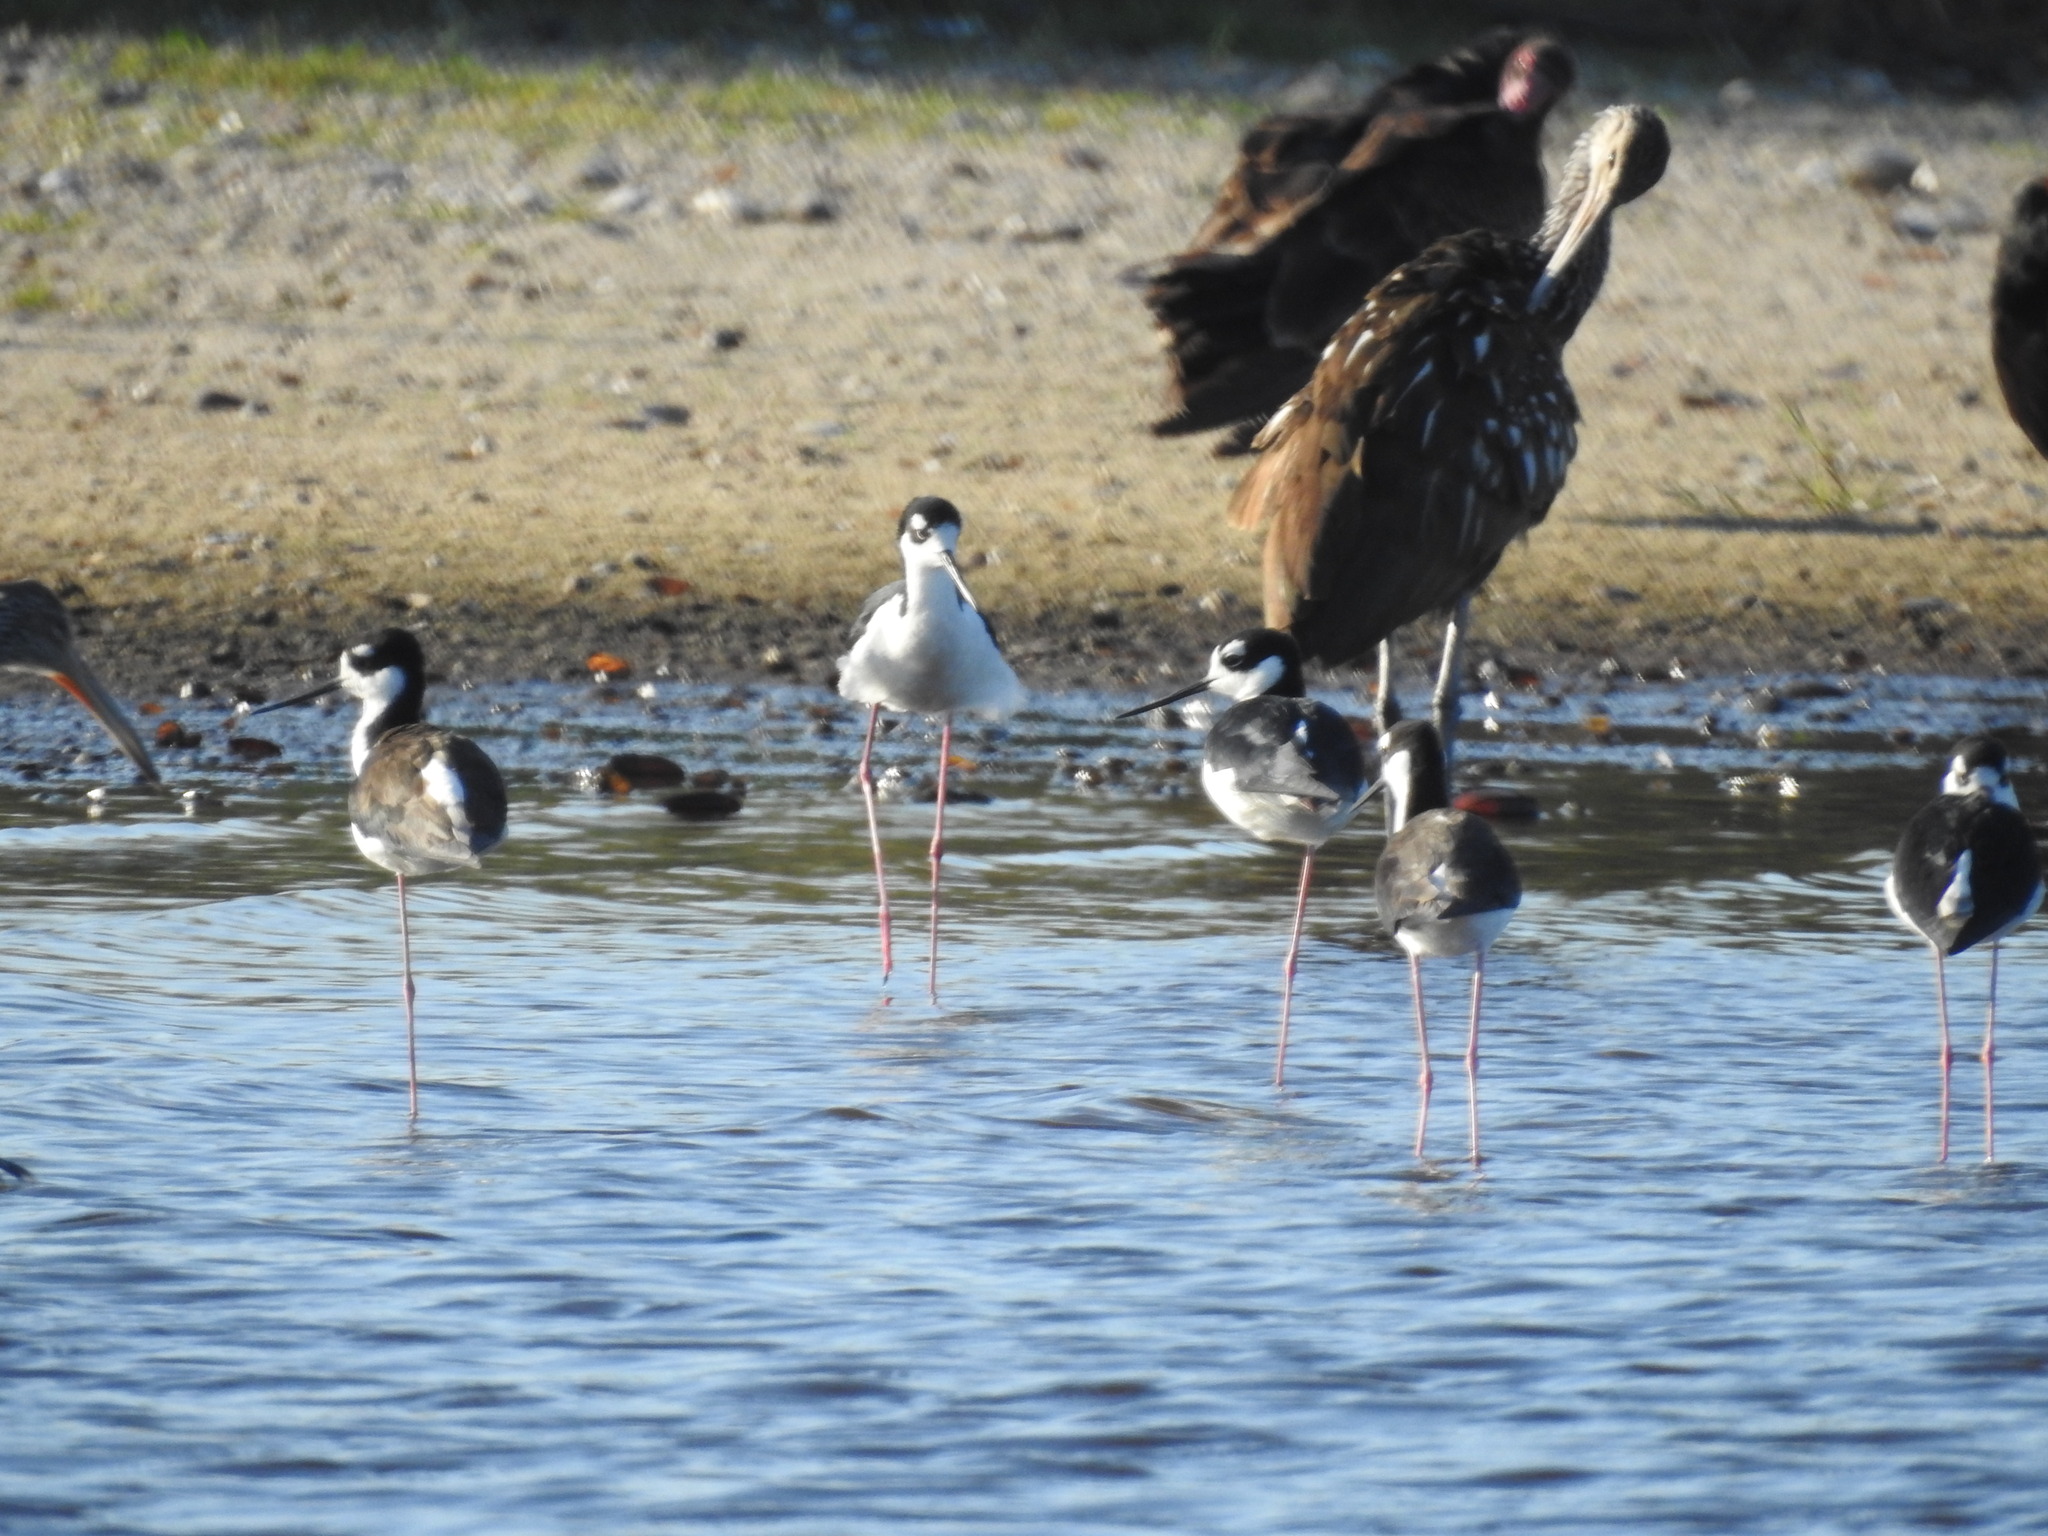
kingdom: Animalia
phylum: Chordata
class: Aves
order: Charadriiformes
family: Recurvirostridae
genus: Himantopus
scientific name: Himantopus mexicanus
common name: Black-necked stilt
